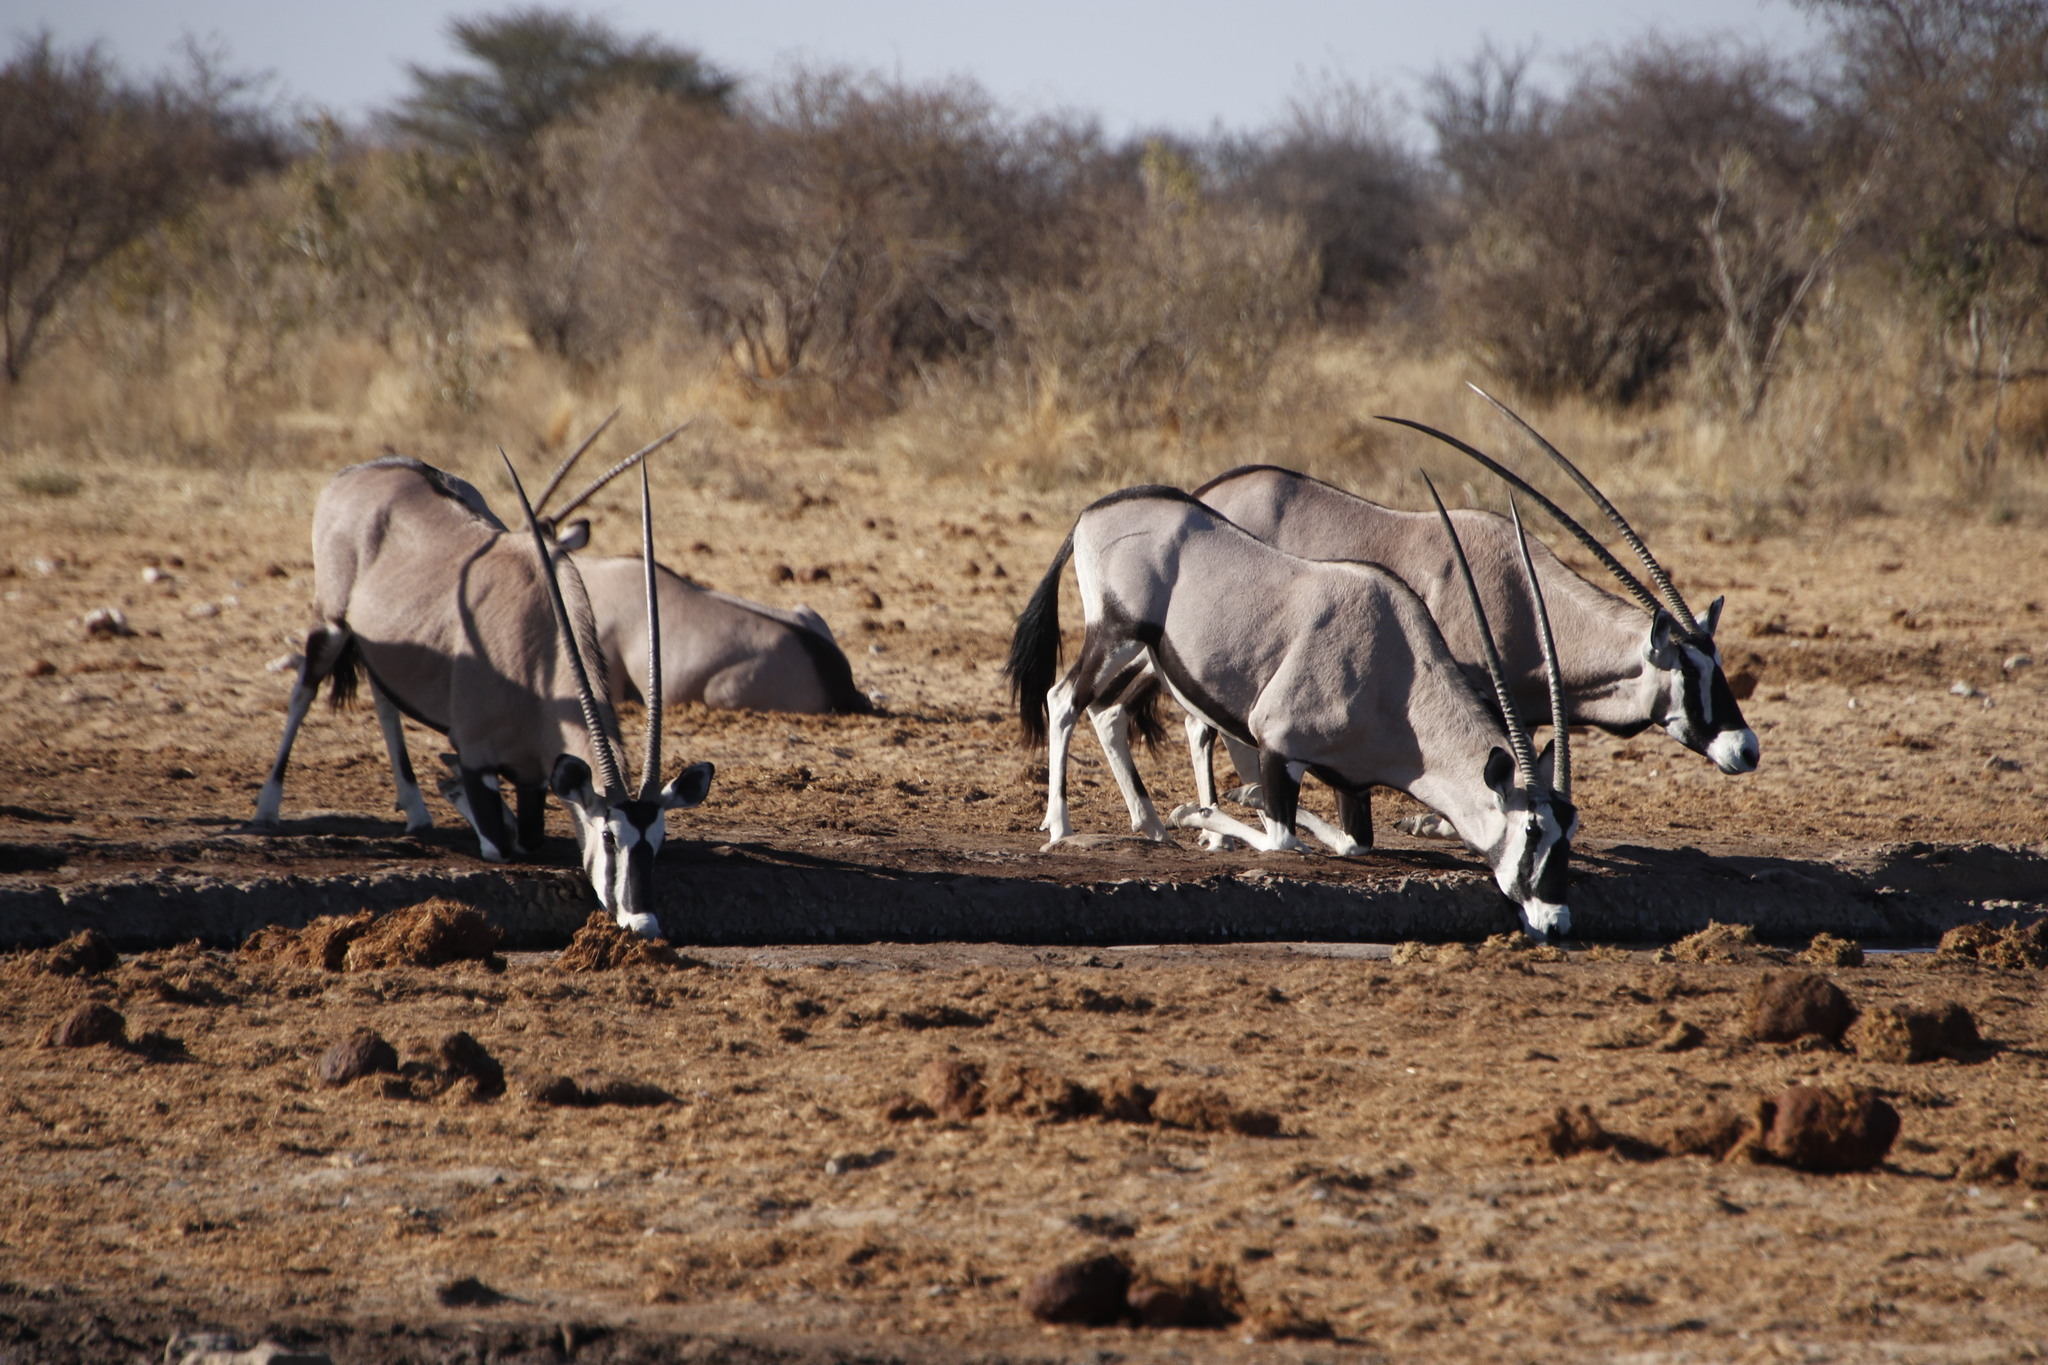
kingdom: Animalia
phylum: Chordata
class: Mammalia
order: Artiodactyla
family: Bovidae
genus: Oryx
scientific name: Oryx gazella
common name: Gemsbok
